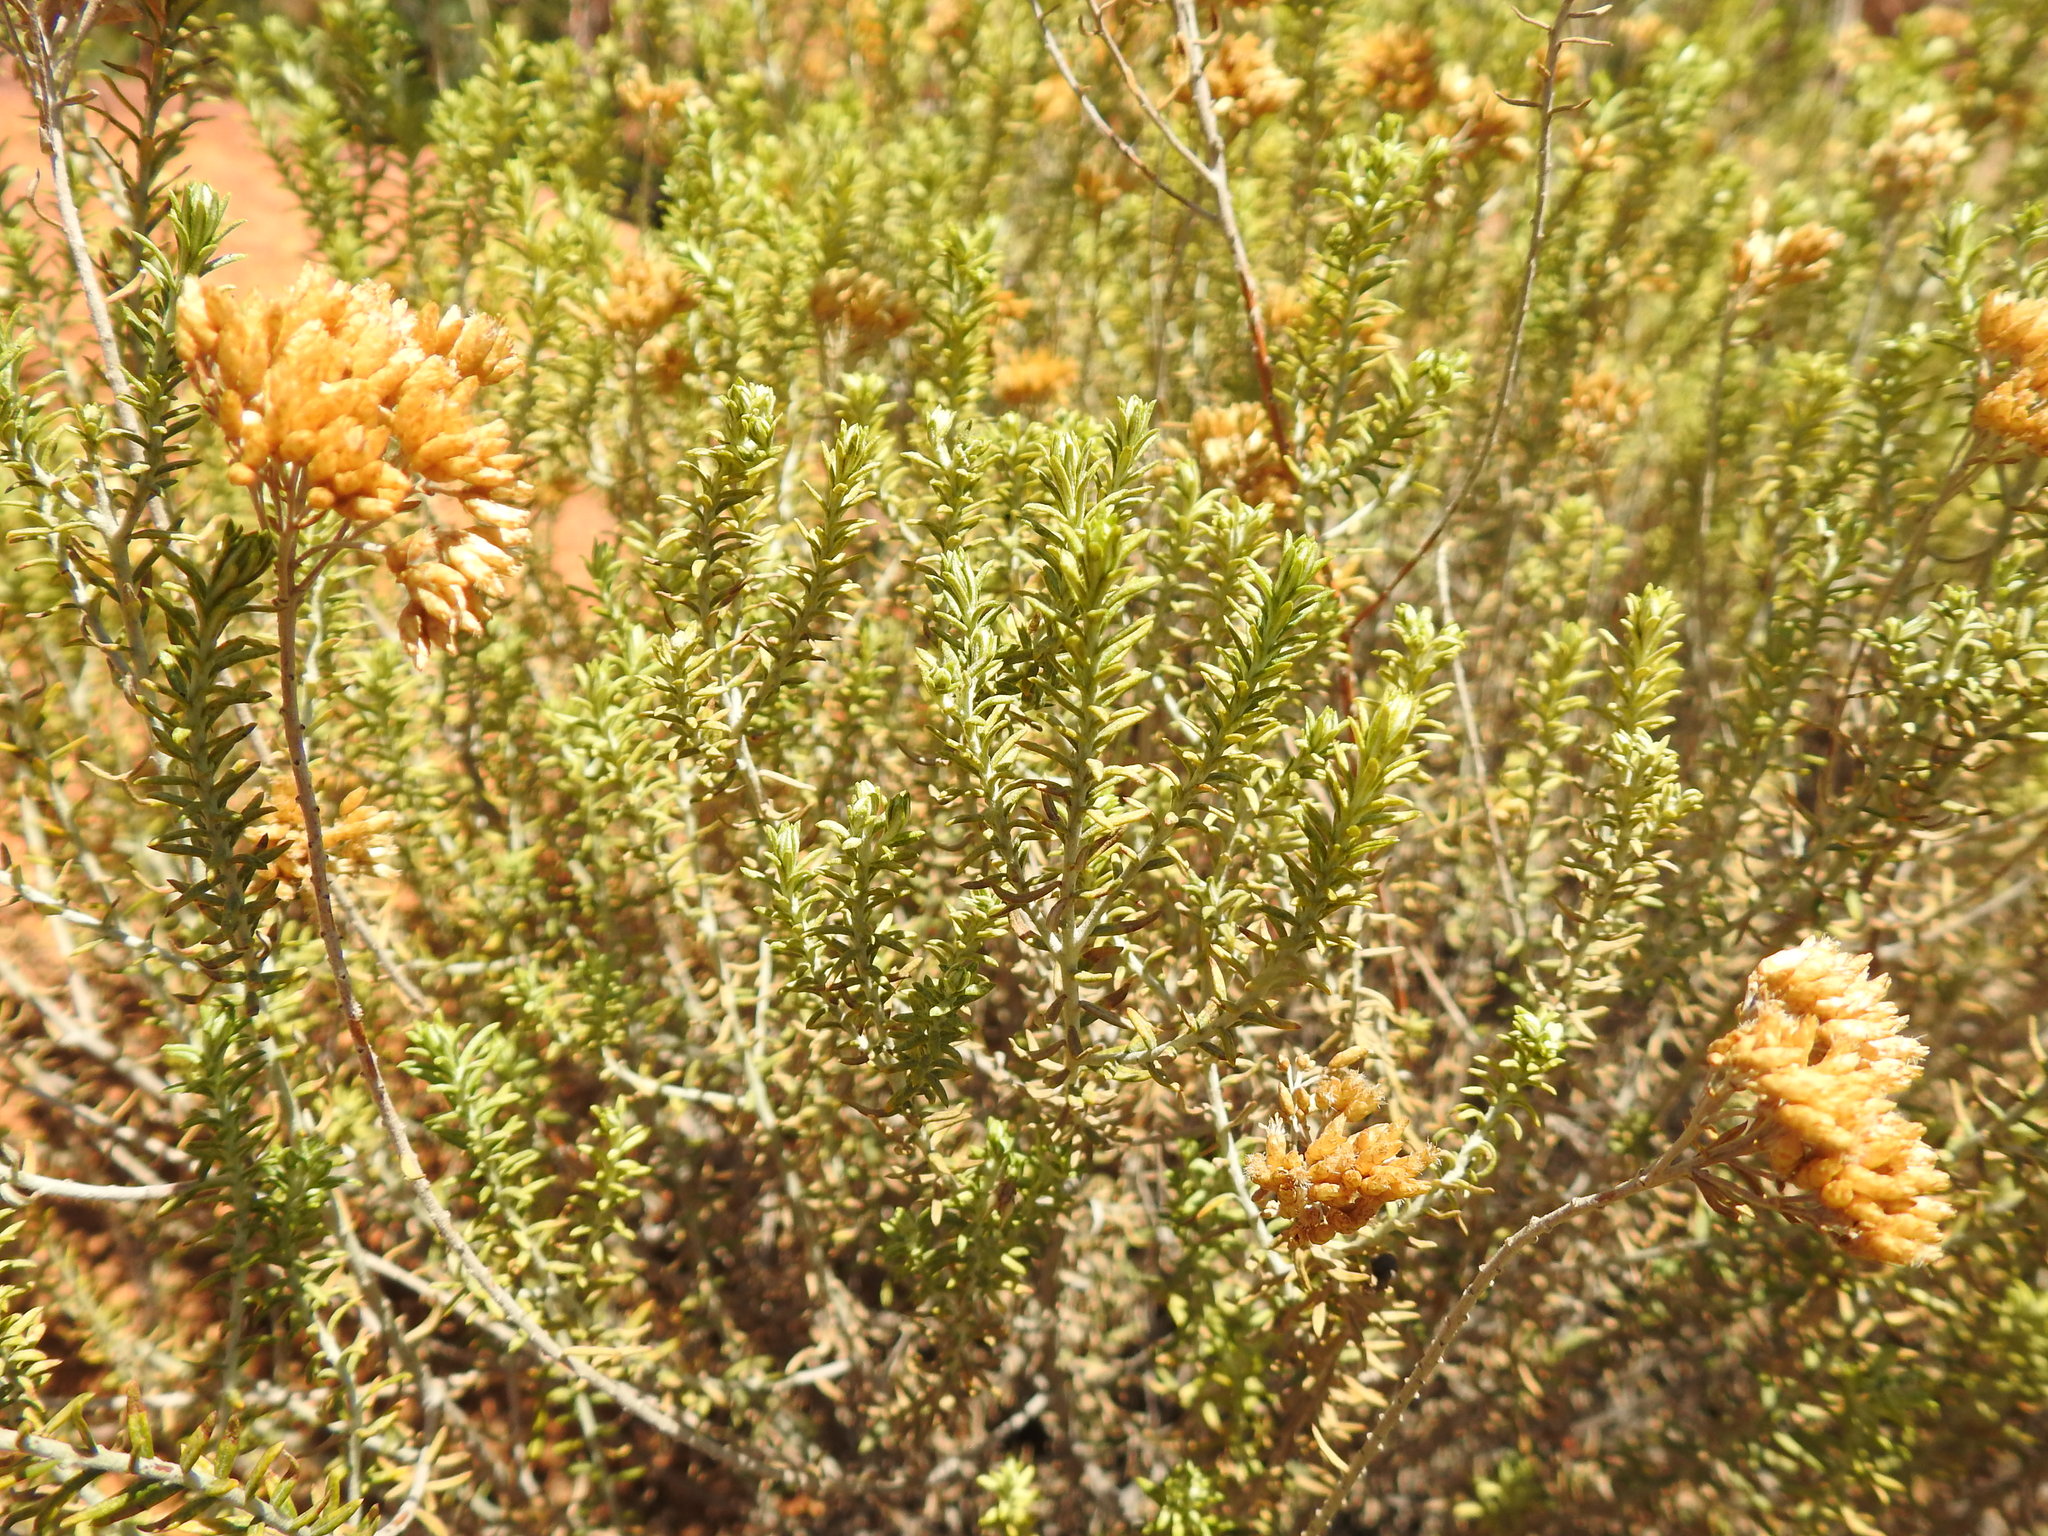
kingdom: Plantae
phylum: Tracheophyta
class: Magnoliopsida
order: Asterales
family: Asteraceae
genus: Helichrysum
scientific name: Helichrysum kraussii
